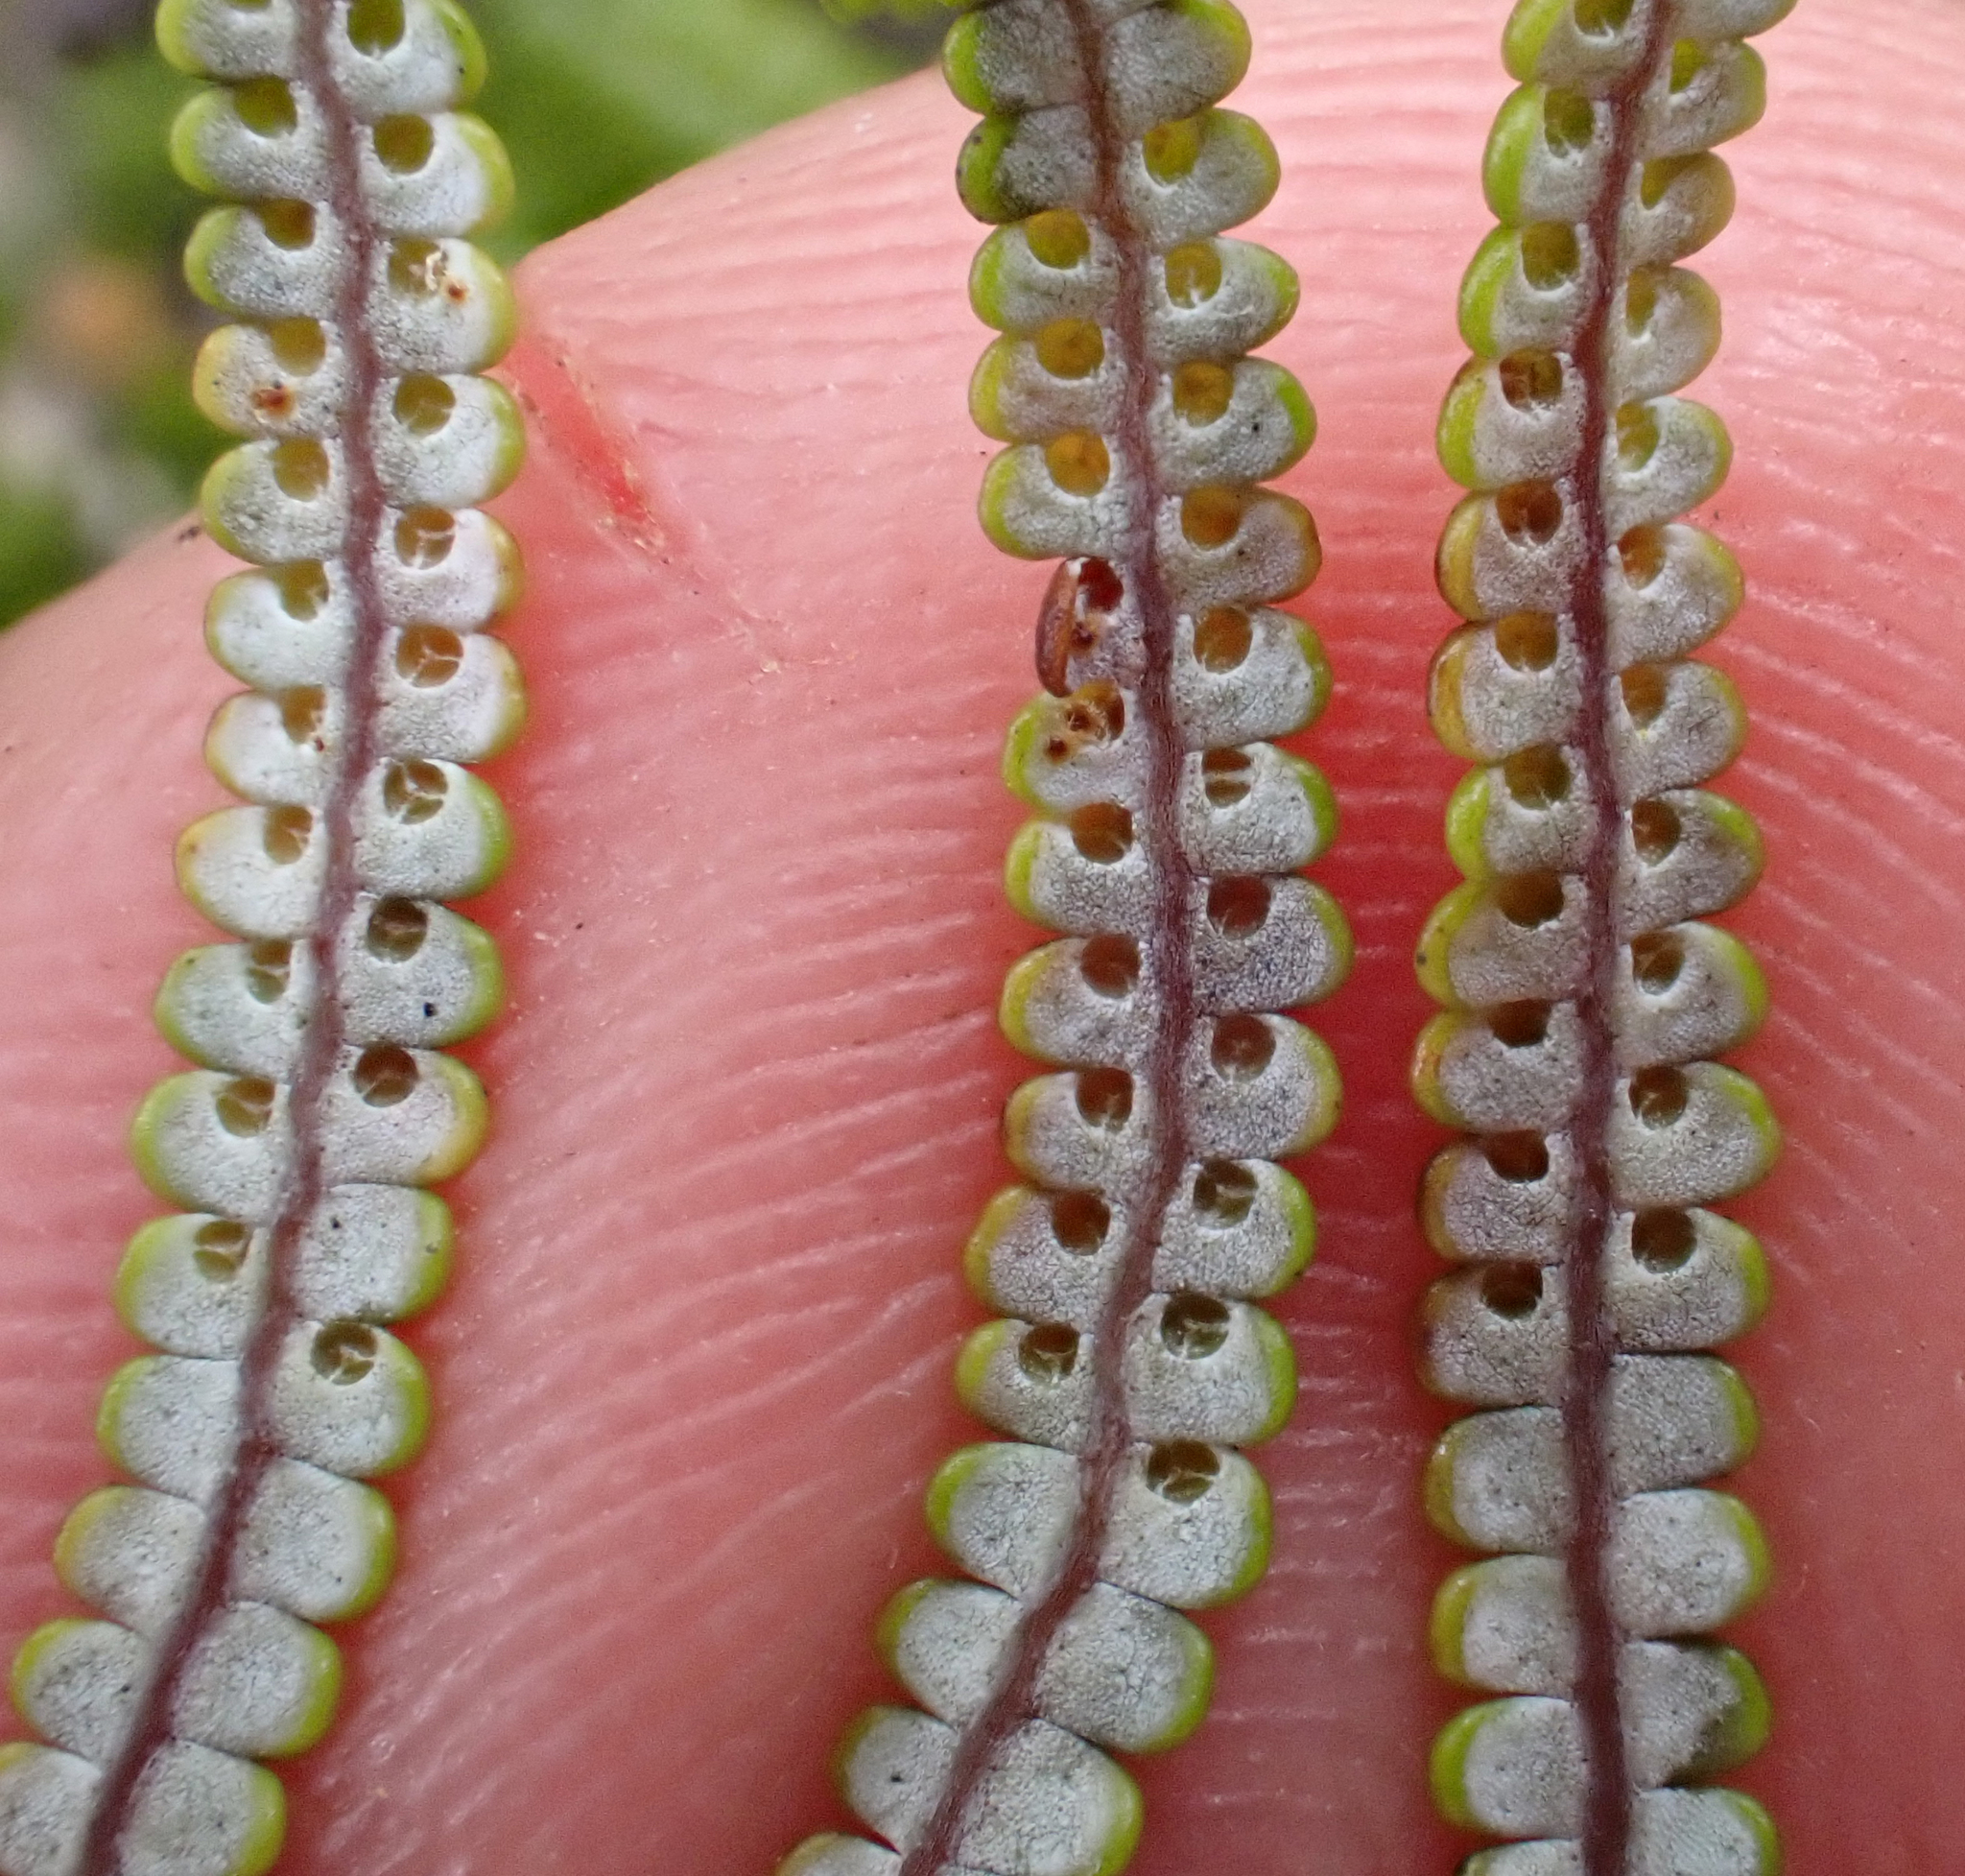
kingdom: Plantae
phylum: Tracheophyta
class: Polypodiopsida
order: Gleicheniales
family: Gleicheniaceae
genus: Gleichenia
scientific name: Gleichenia inclusisora
